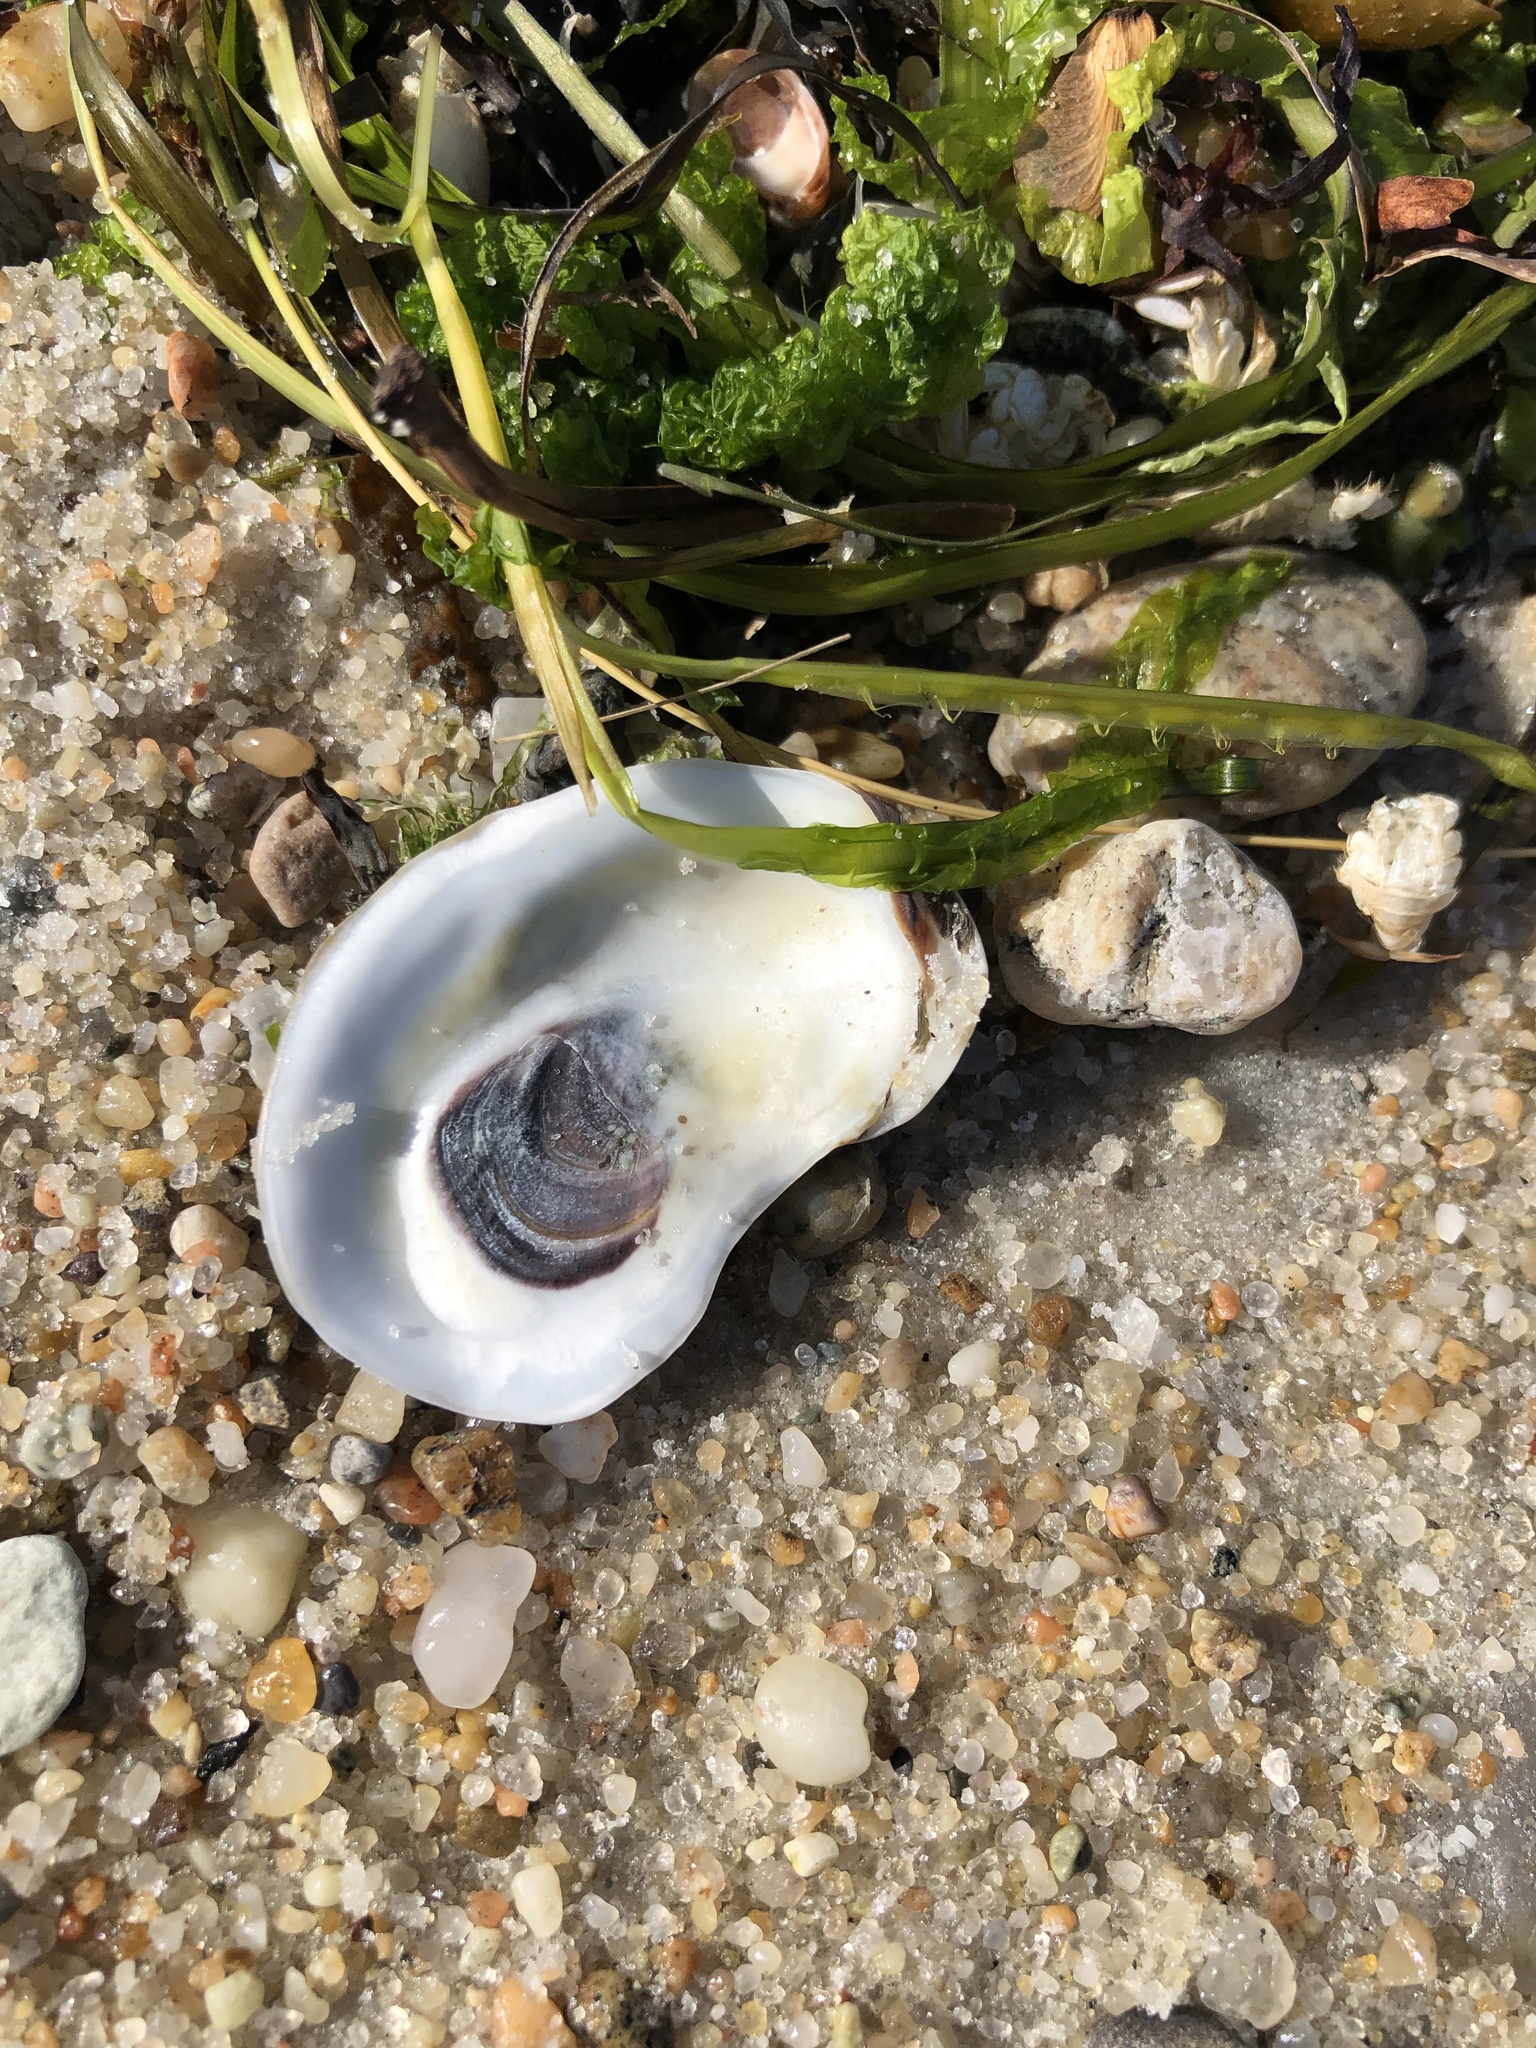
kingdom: Animalia
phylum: Mollusca
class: Bivalvia
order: Ostreida
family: Ostreidae
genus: Crassostrea
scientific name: Crassostrea virginica
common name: American oyster
